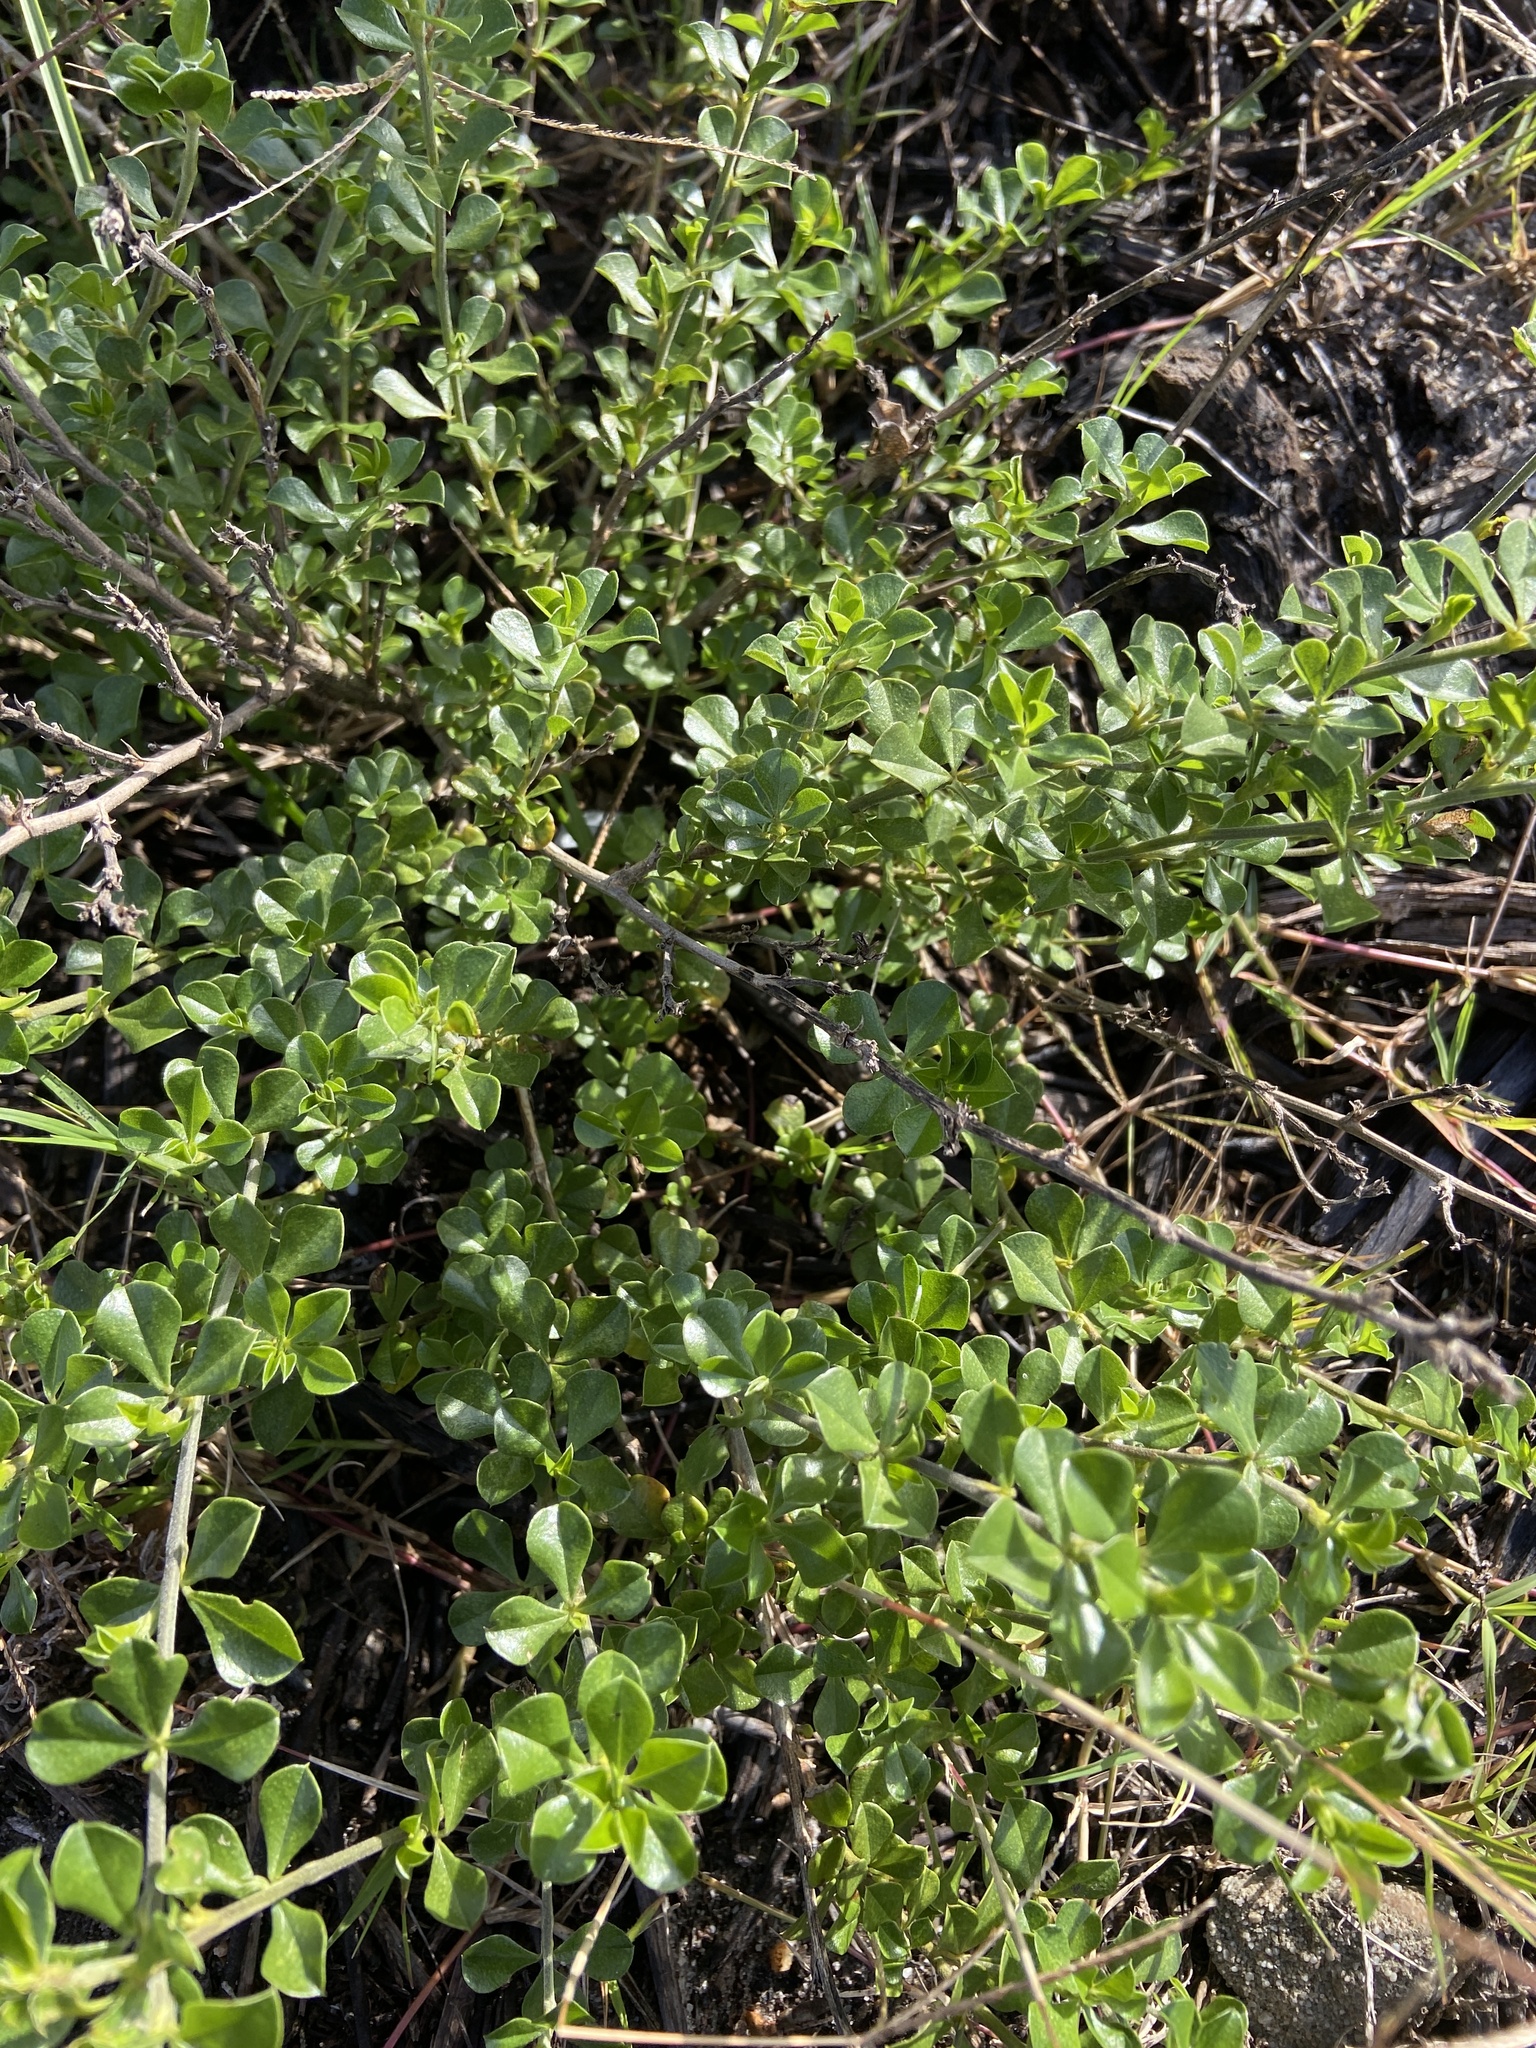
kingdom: Plantae
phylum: Tracheophyta
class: Magnoliopsida
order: Fabales
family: Fabaceae
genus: Psoralea
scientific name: Psoralea bracteolata
